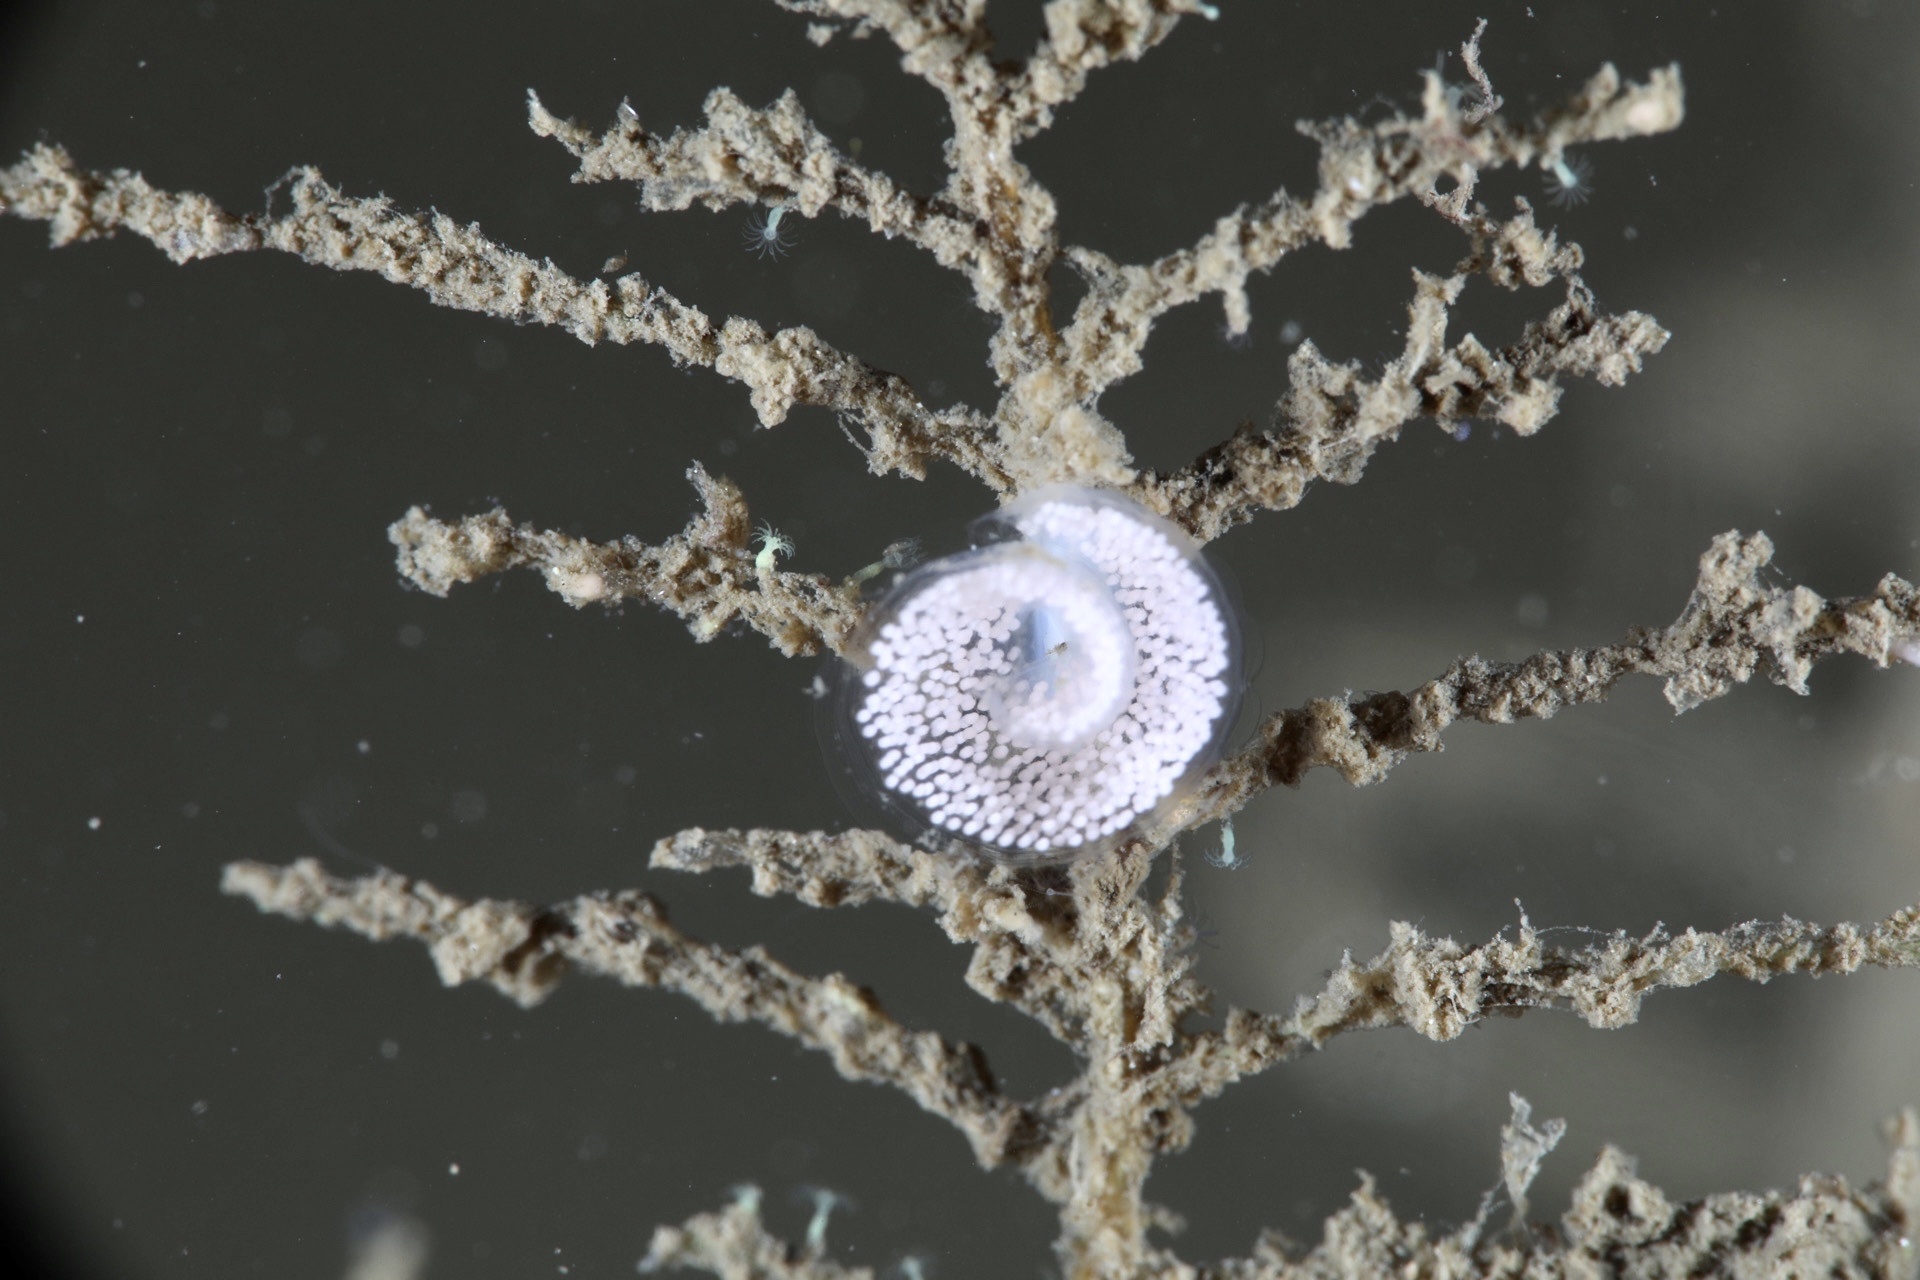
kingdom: Animalia
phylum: Mollusca
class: Gastropoda
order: Nudibranchia
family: Eubranchidae
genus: Eubranchus
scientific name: Eubranchus tricolor
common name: Painted balloon aeolis
